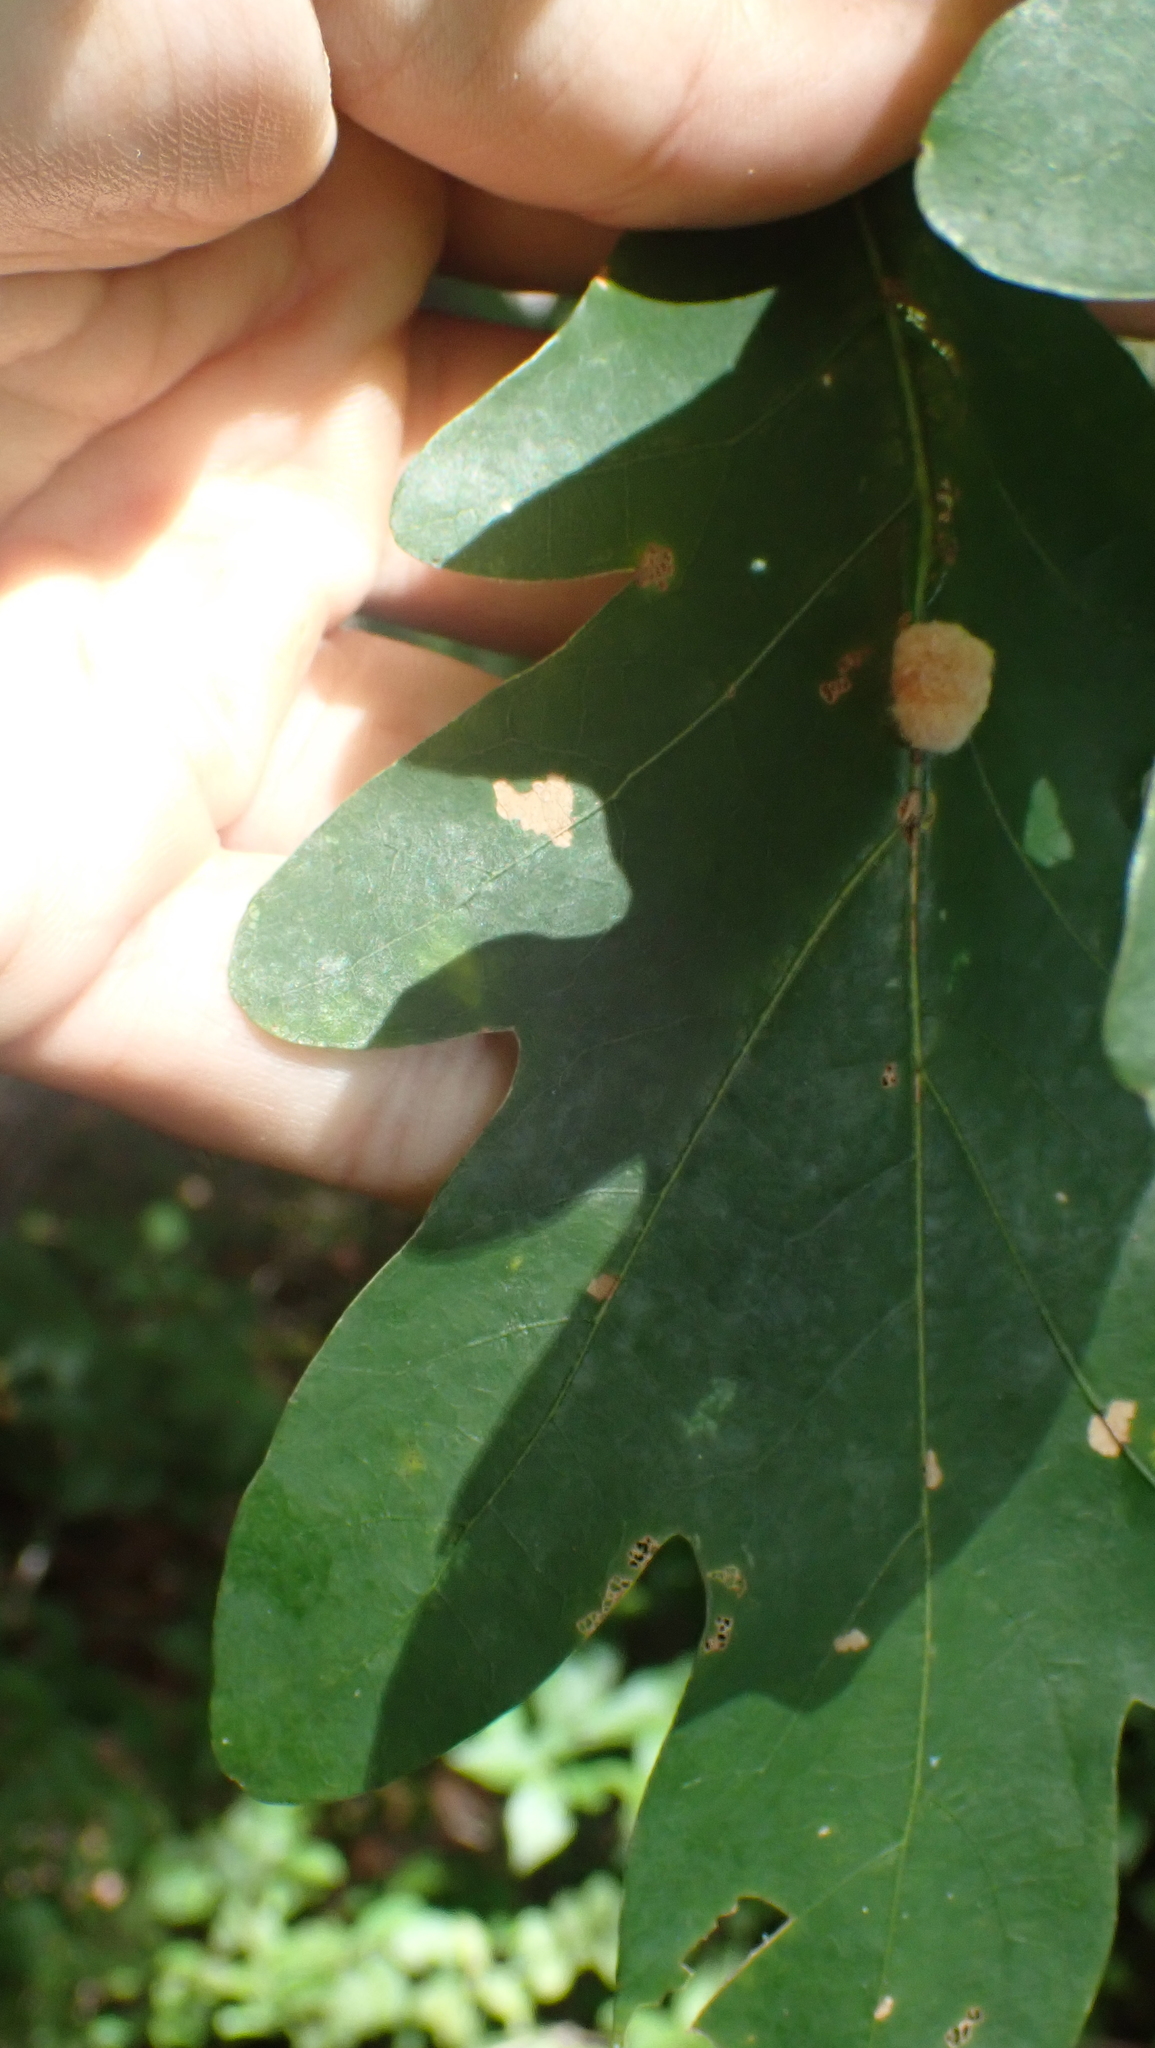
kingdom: Animalia
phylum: Arthropoda
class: Insecta
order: Hymenoptera
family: Cynipidae
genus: Andricus
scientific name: Andricus quercusflocci
